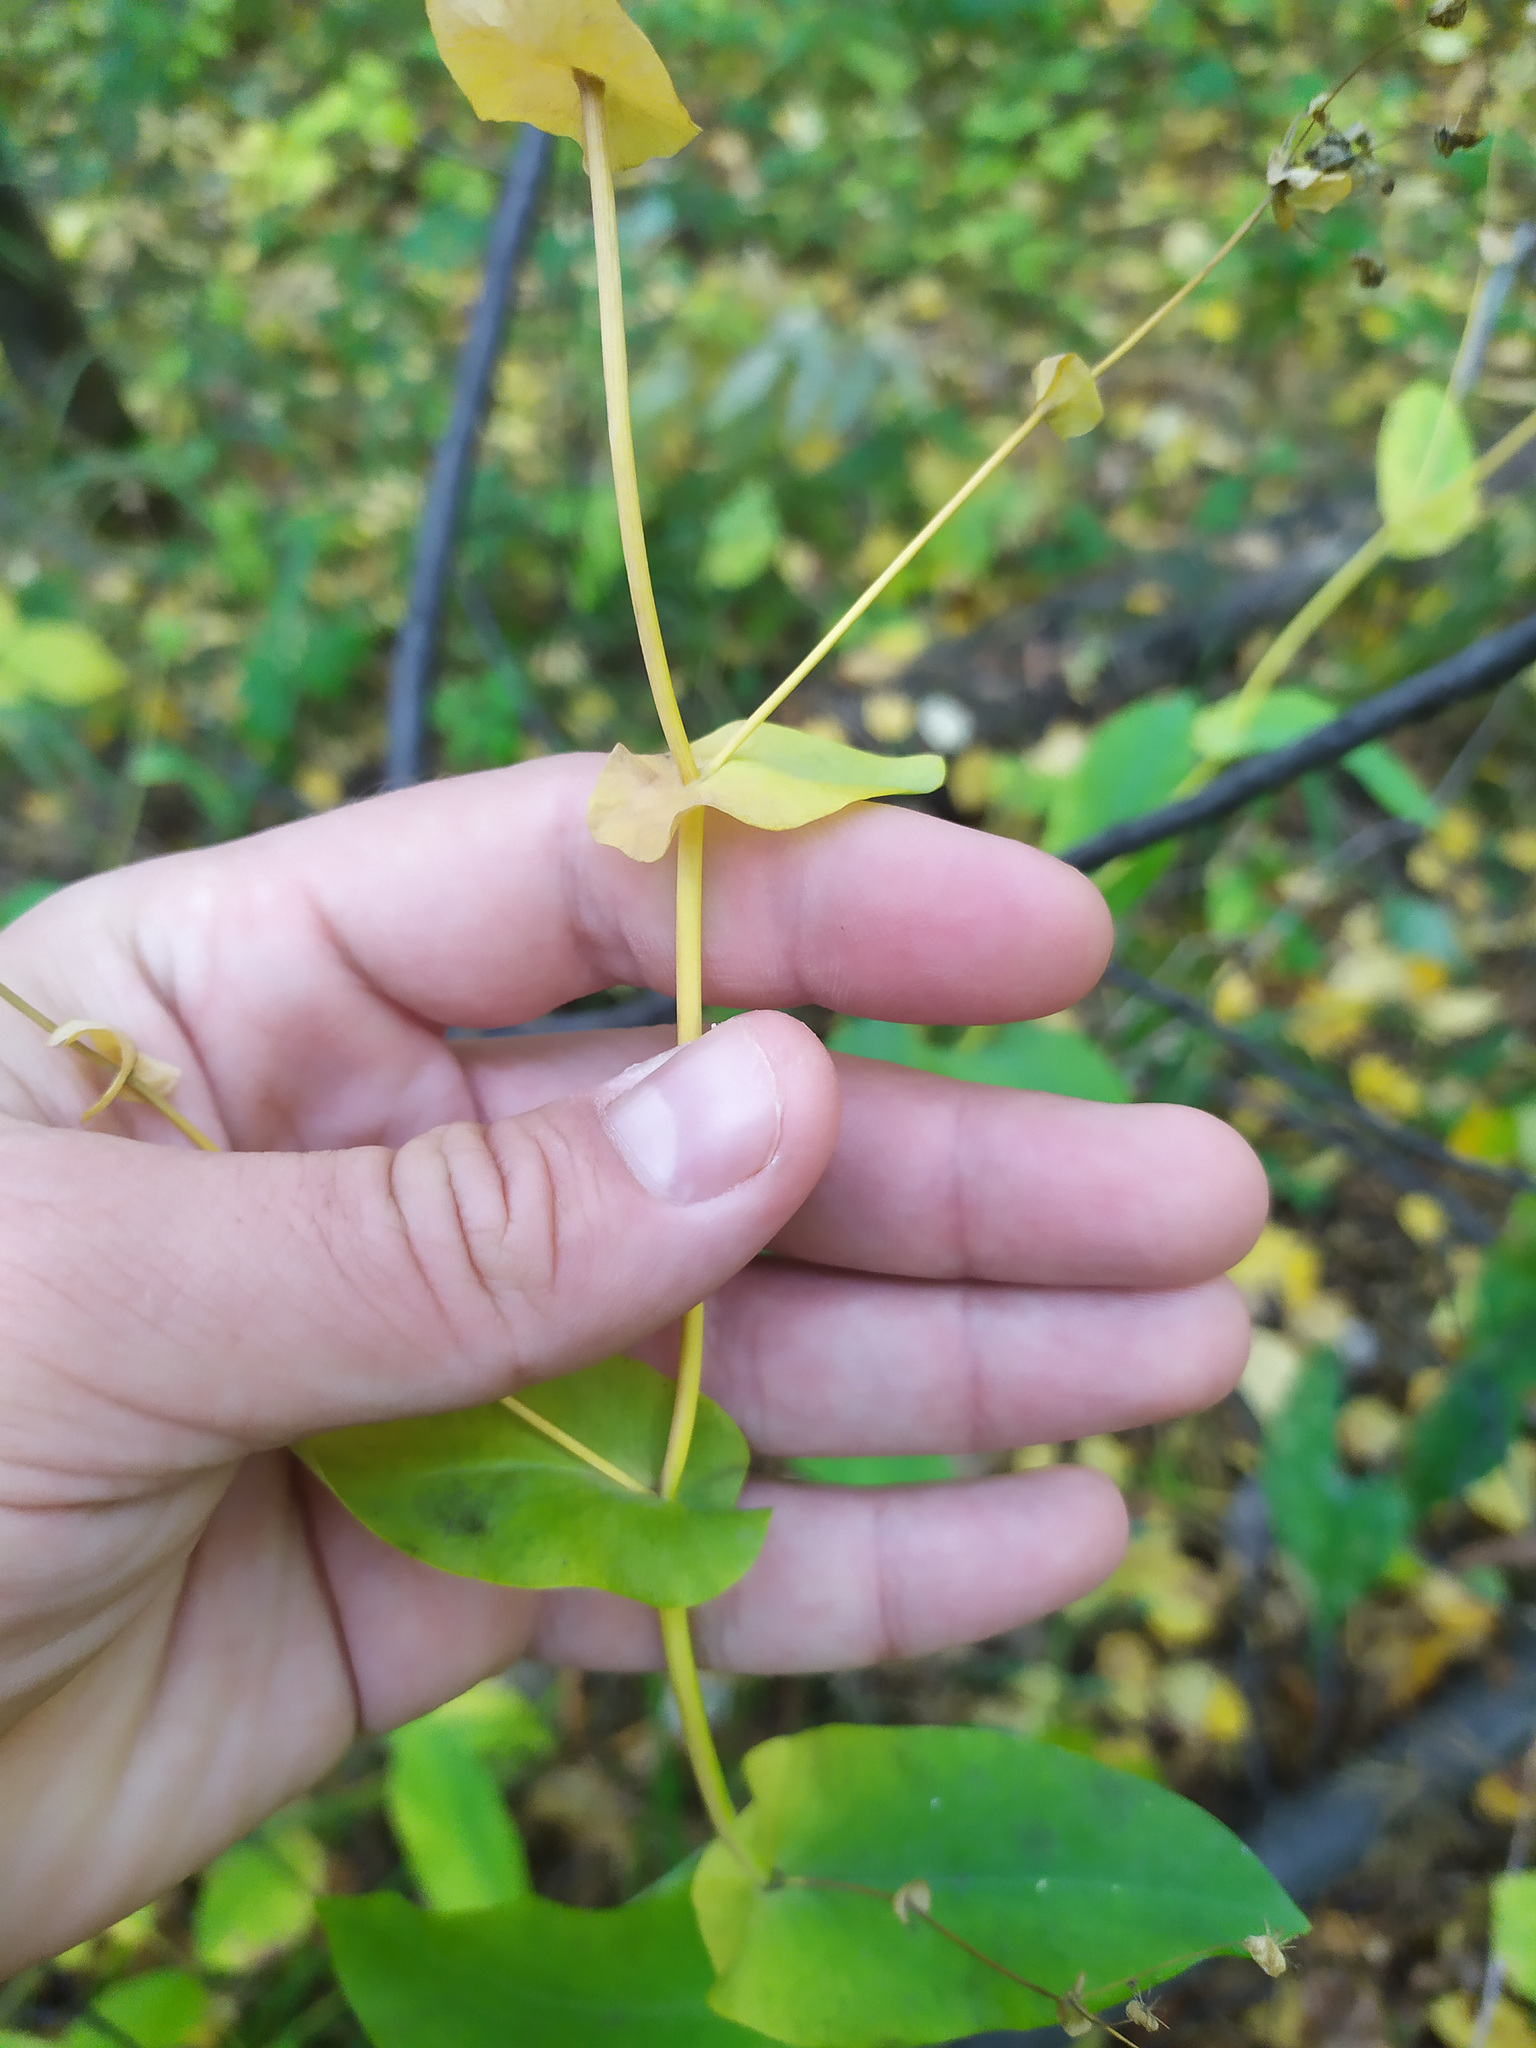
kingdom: Plantae
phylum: Tracheophyta
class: Magnoliopsida
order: Apiales
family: Apiaceae
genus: Bupleurum
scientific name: Bupleurum aureum
